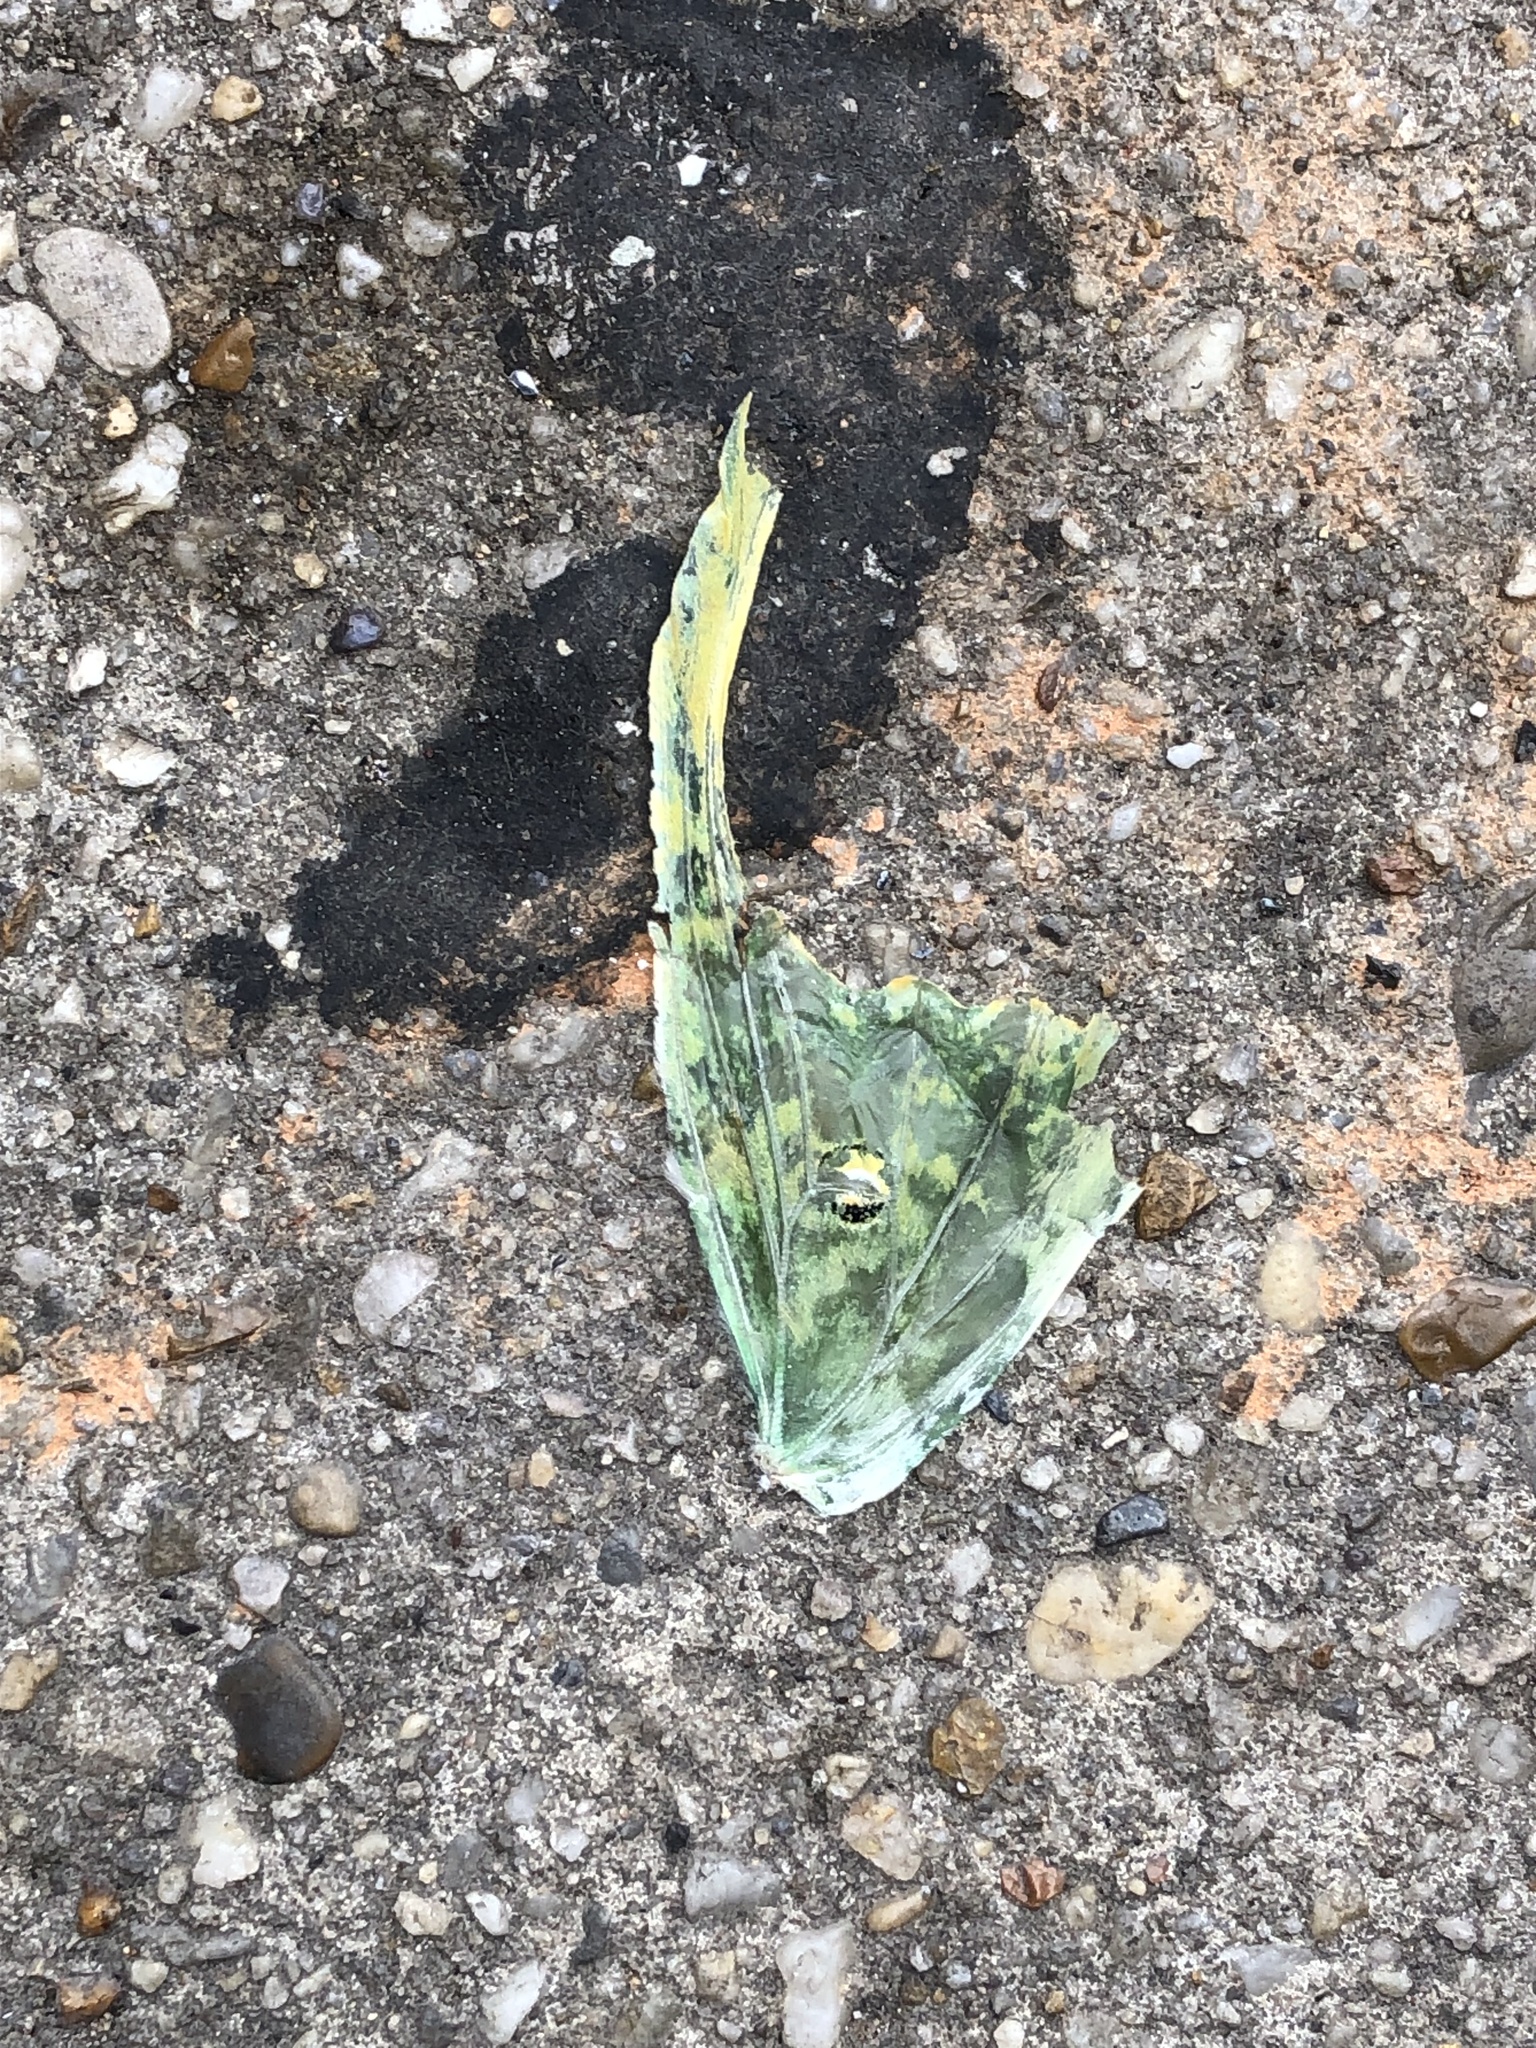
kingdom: Animalia
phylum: Arthropoda
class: Insecta
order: Lepidoptera
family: Saturniidae
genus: Actias
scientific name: Actias luna
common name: Luna moth
